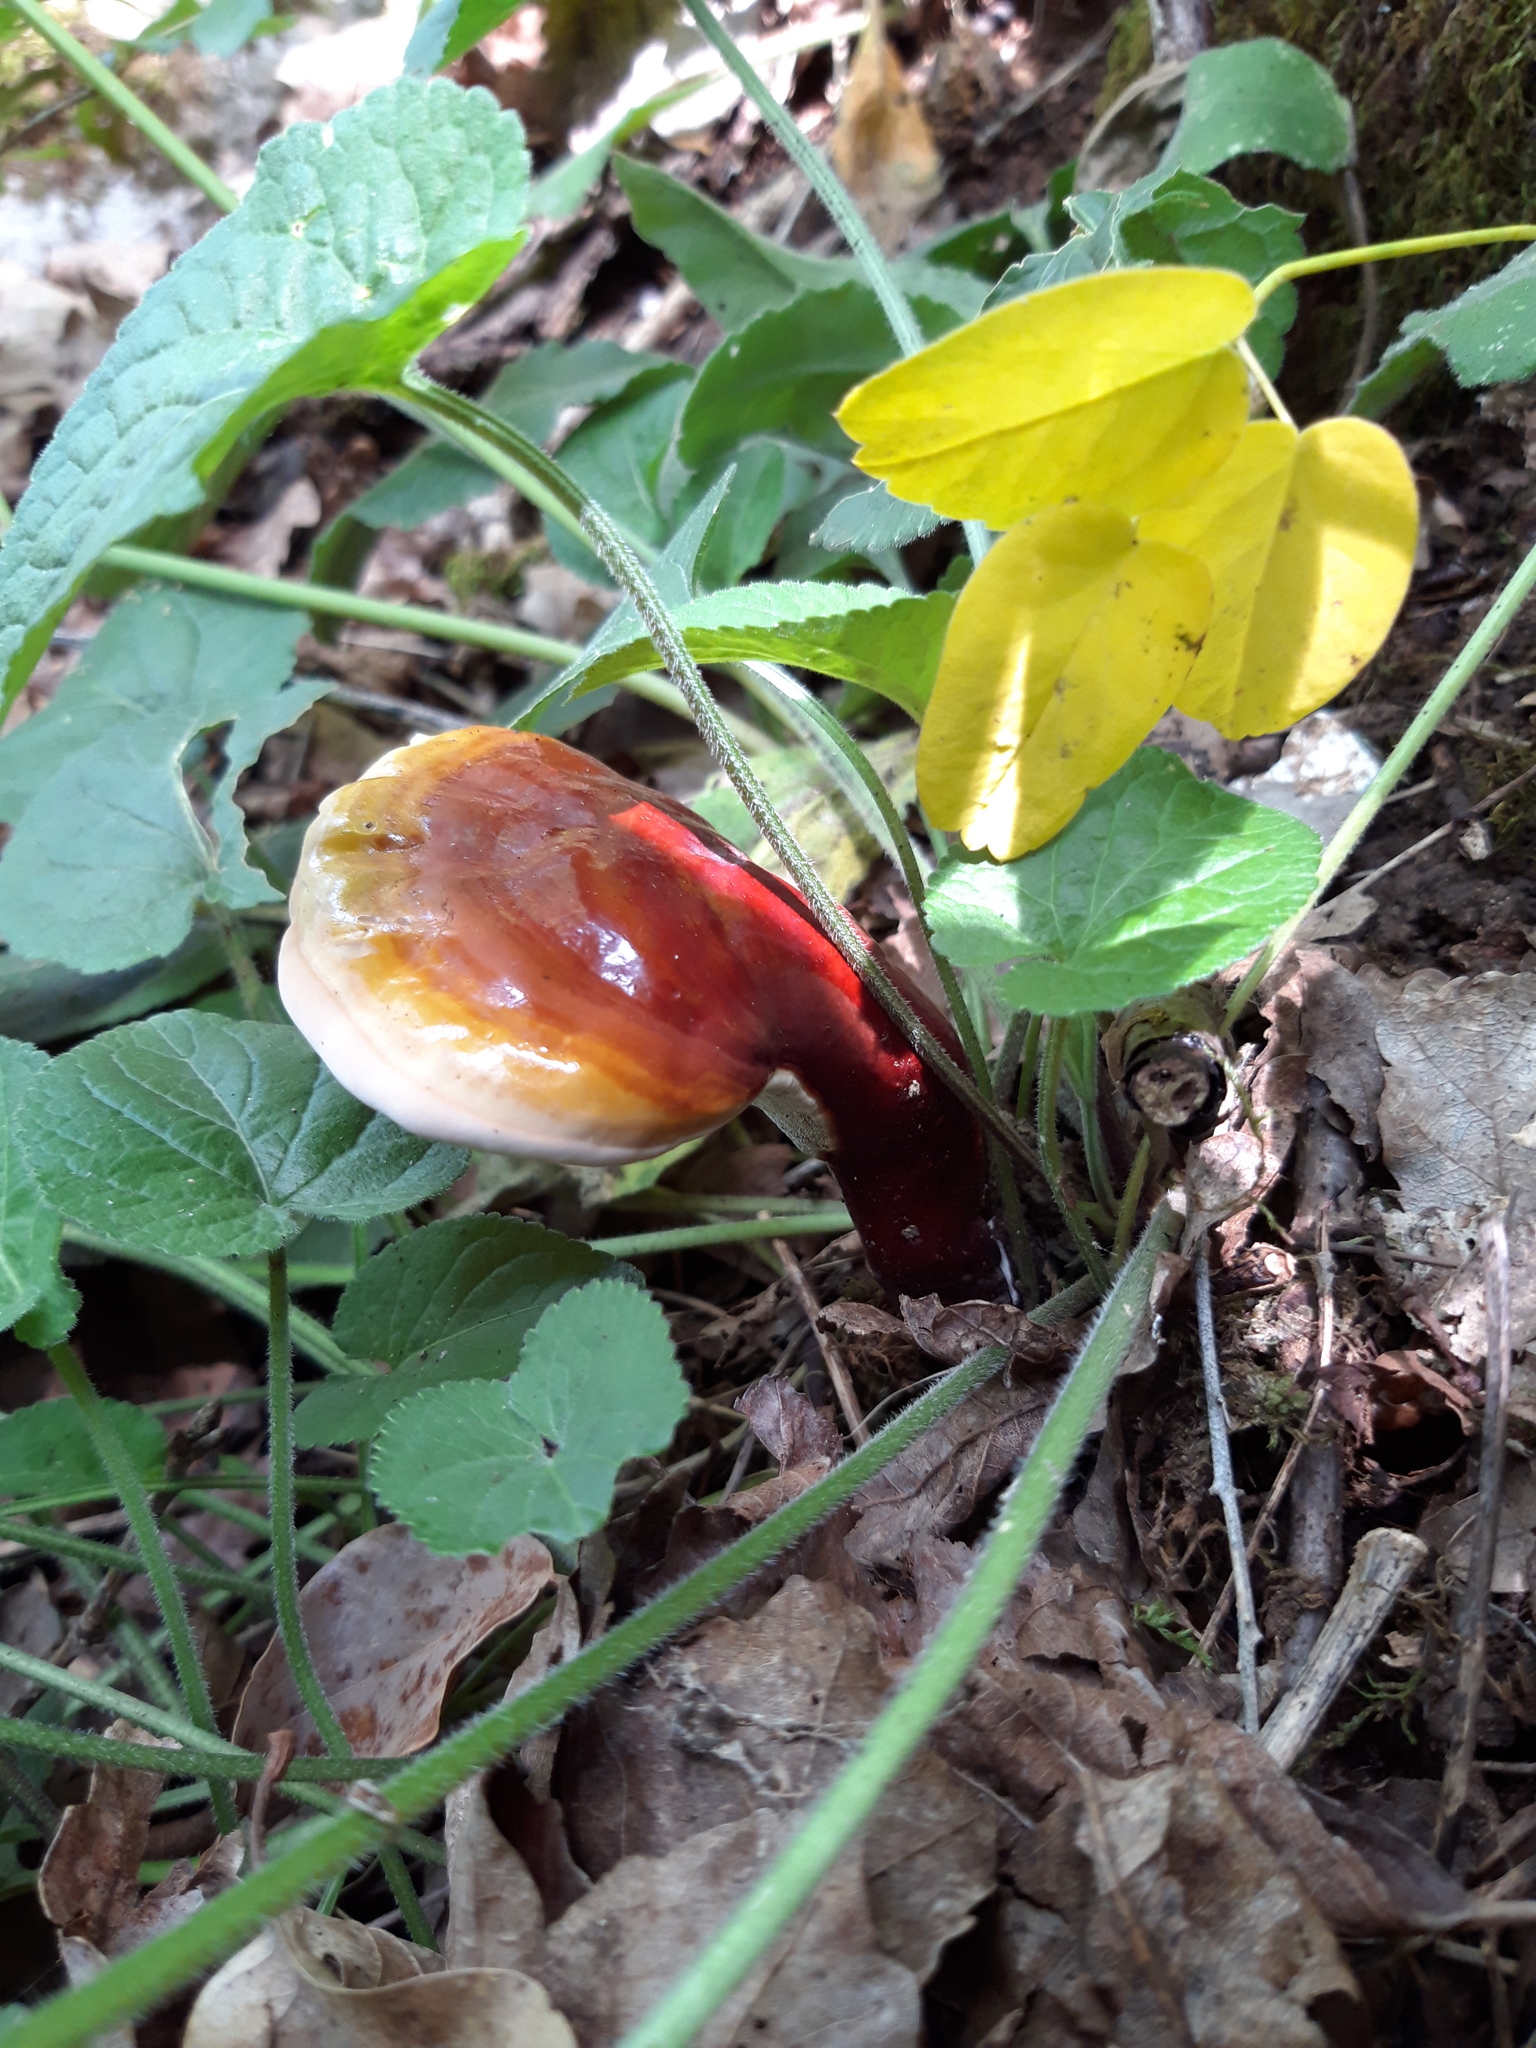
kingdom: Fungi
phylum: Basidiomycota
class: Agaricomycetes
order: Polyporales
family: Polyporaceae
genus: Ganoderma
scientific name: Ganoderma lucidum
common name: Lacquered bracket
